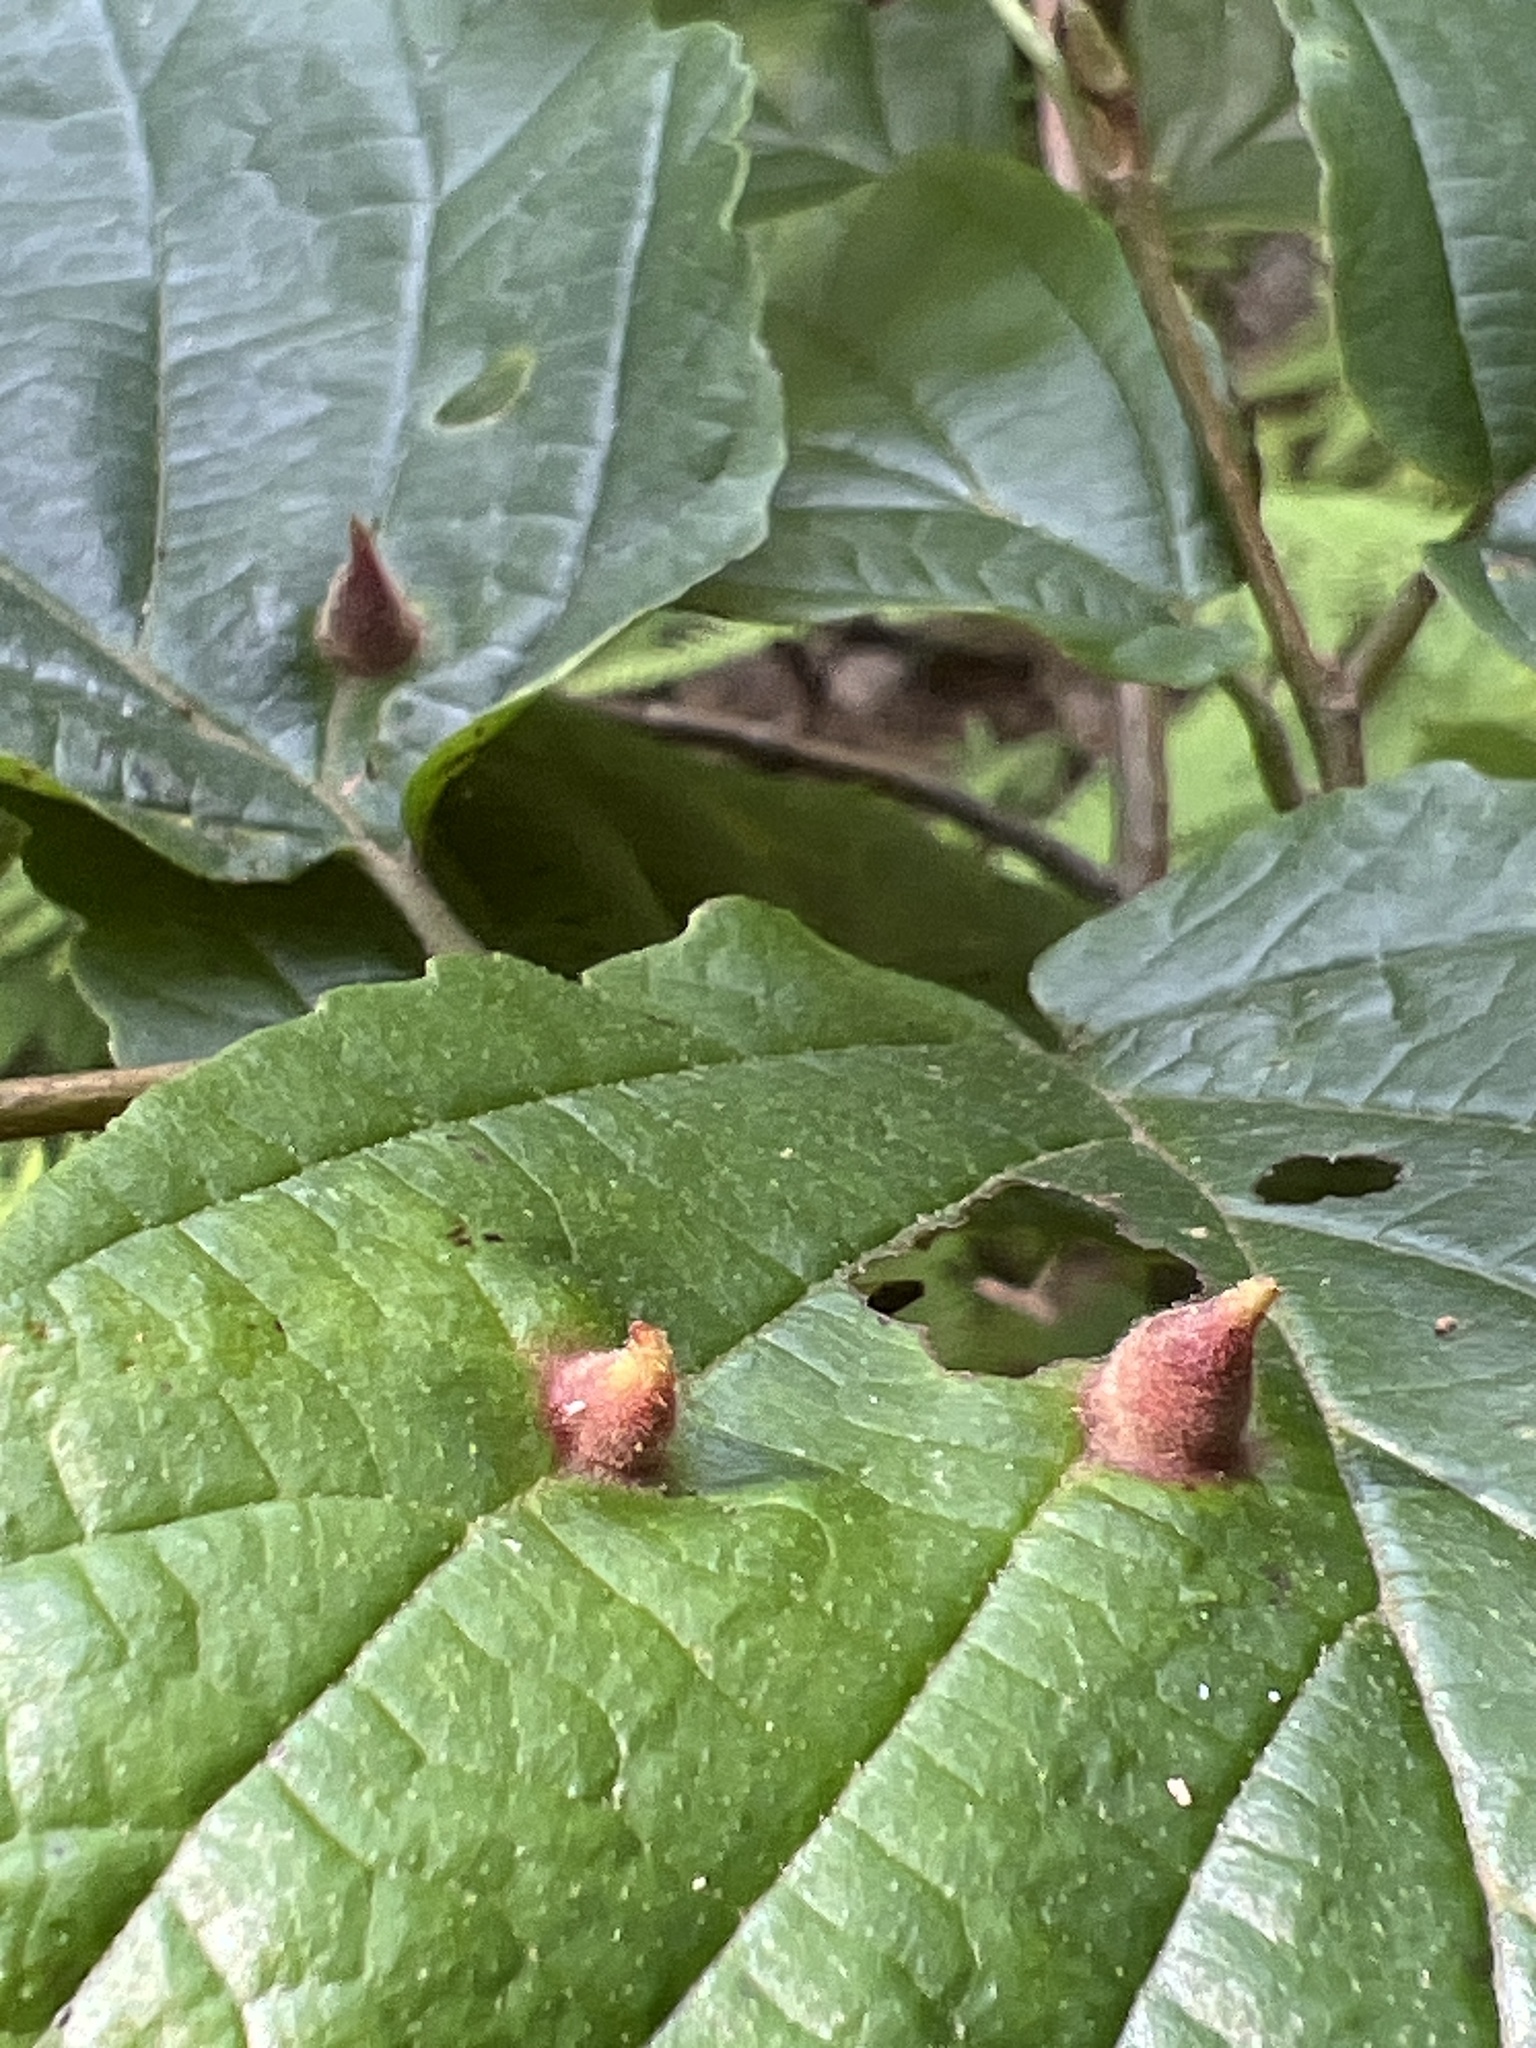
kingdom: Animalia
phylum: Arthropoda
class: Insecta
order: Hemiptera
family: Aphididae
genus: Hormaphis
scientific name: Hormaphis hamamelidis
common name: Witch-hazel cone gall aphid
